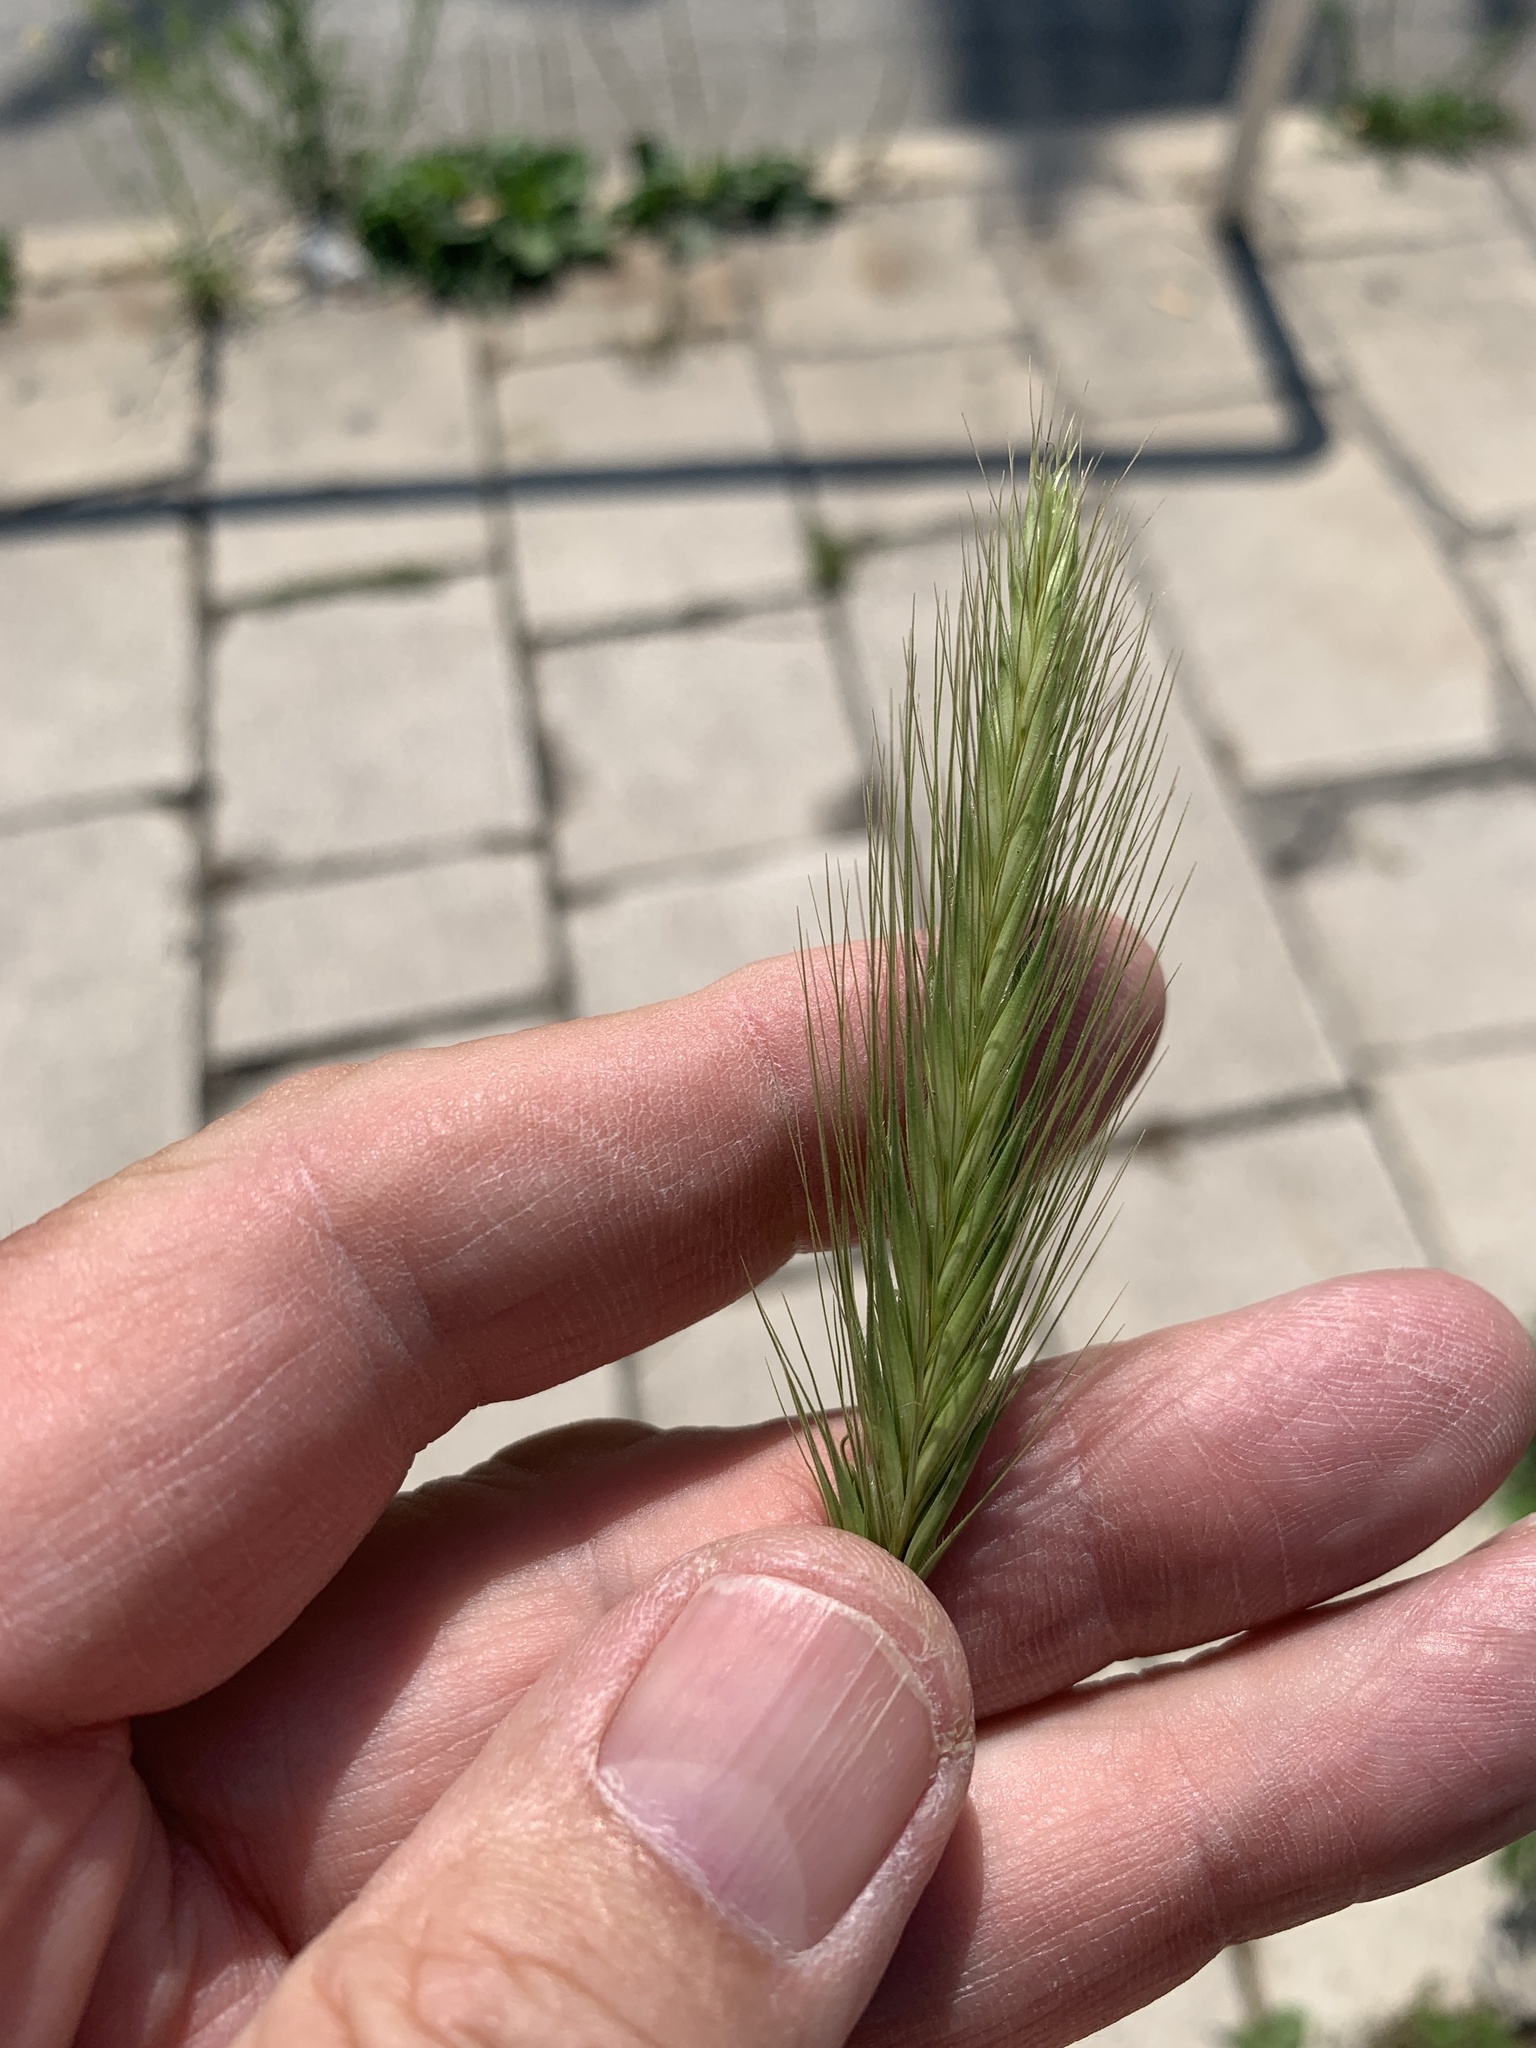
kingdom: Plantae
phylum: Tracheophyta
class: Liliopsida
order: Poales
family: Poaceae
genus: Hordeum
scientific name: Hordeum murinum
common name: Wall barley
